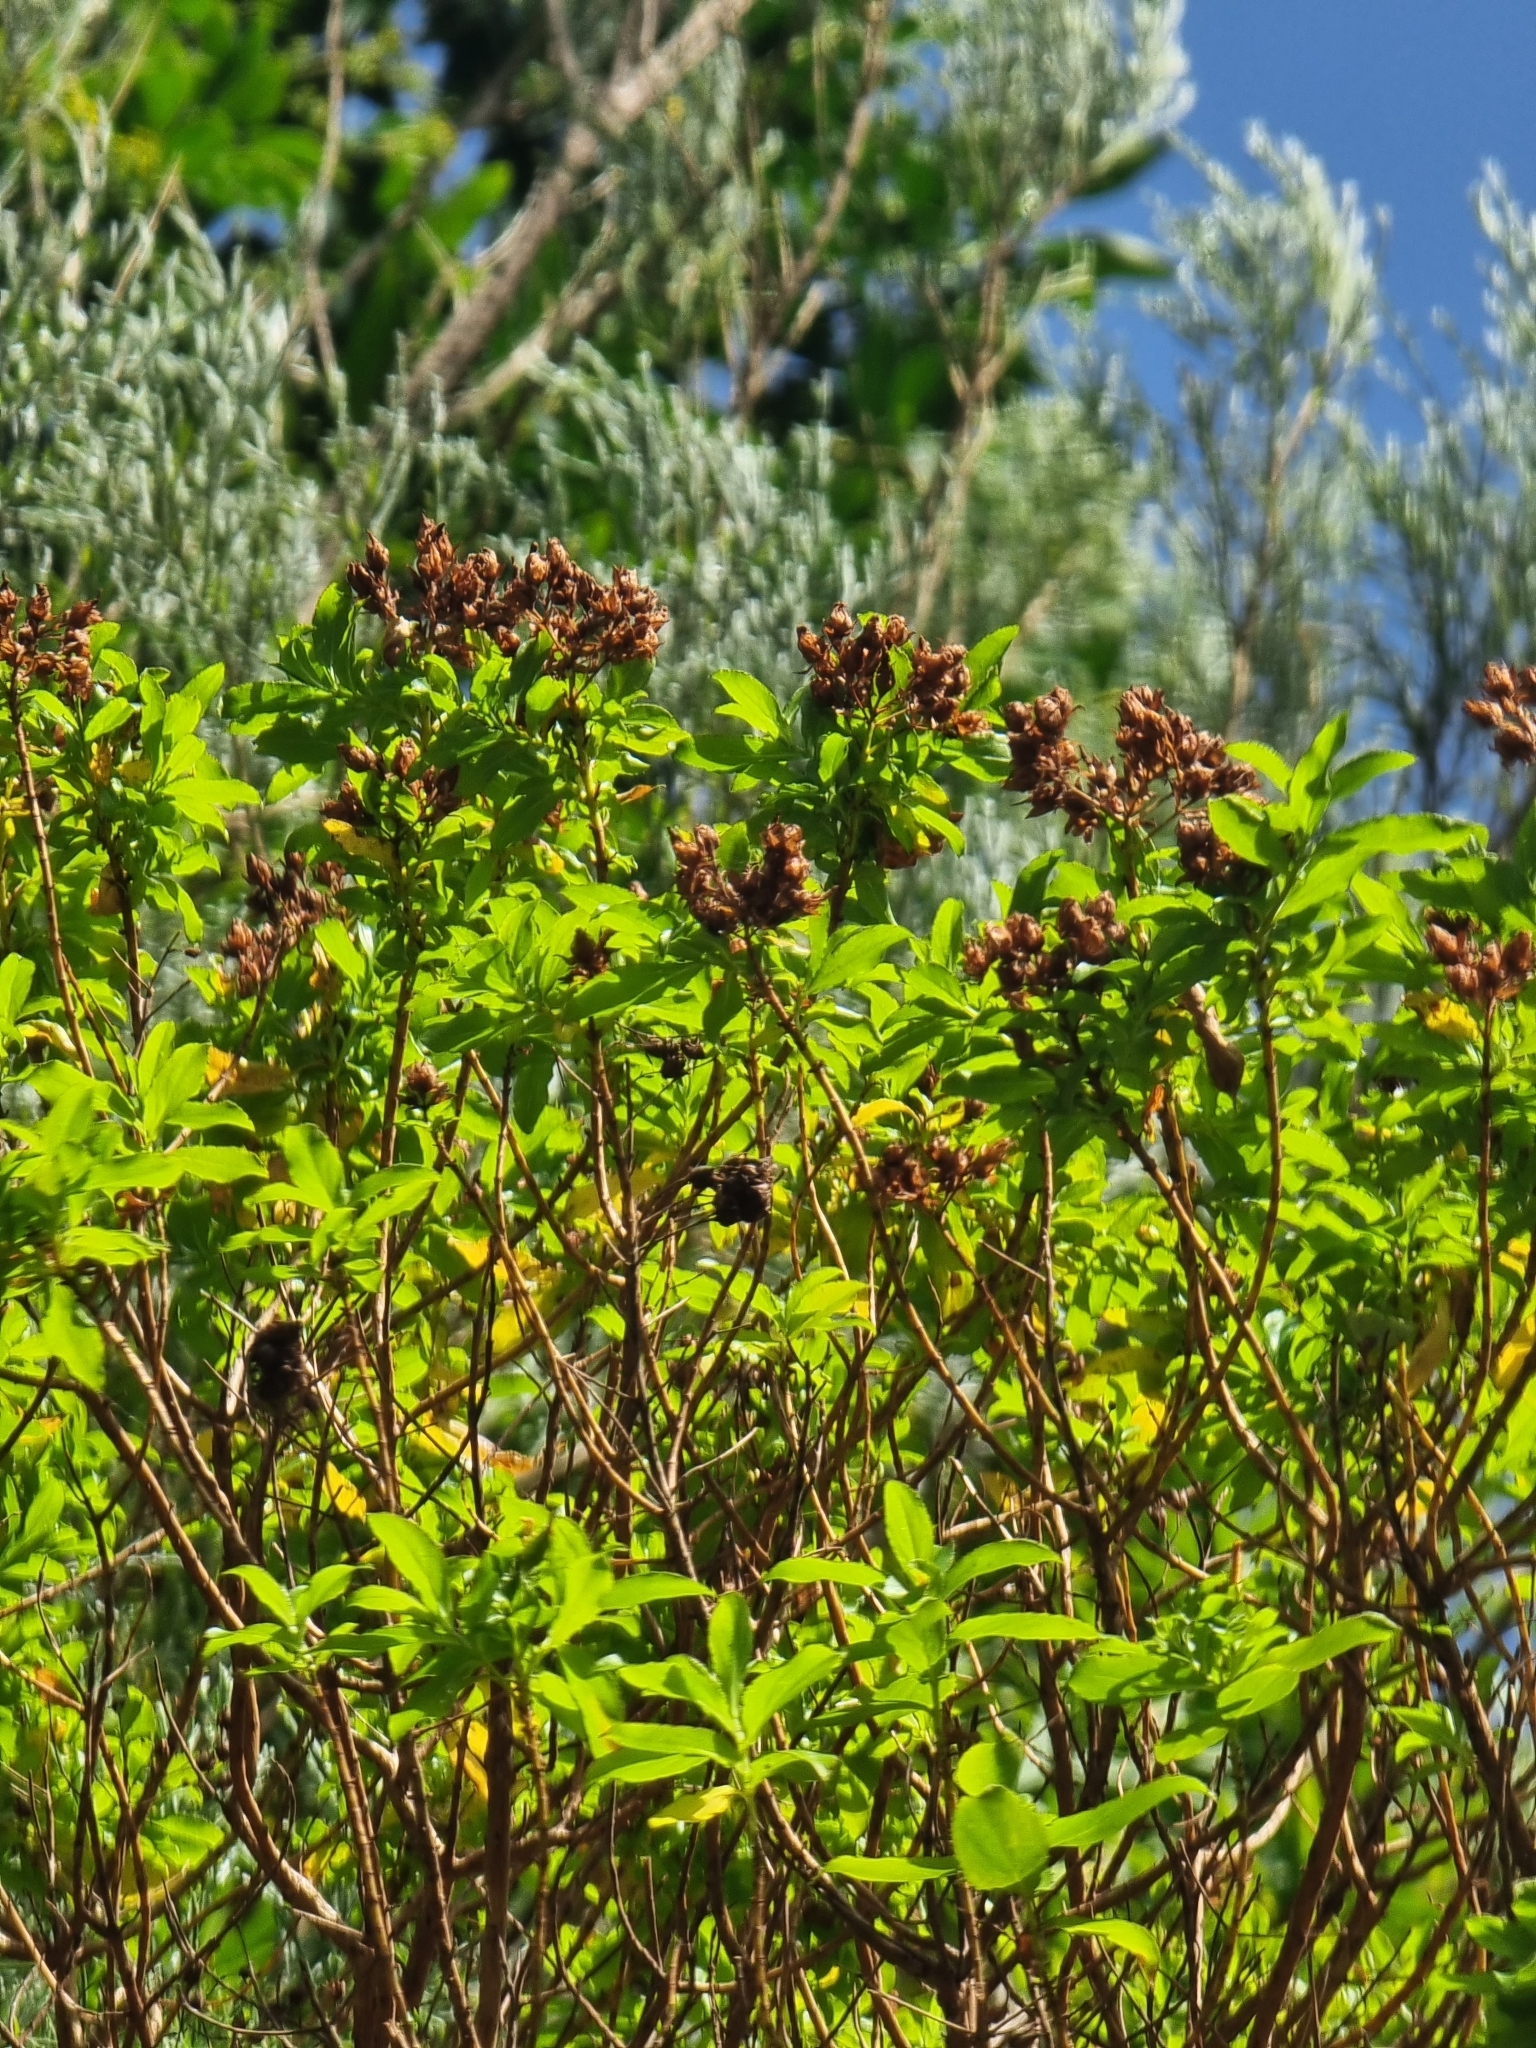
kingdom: Plantae
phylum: Tracheophyta
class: Magnoliopsida
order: Malpighiales
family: Hypericaceae
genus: Hypericum
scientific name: Hypericum glandulosum
